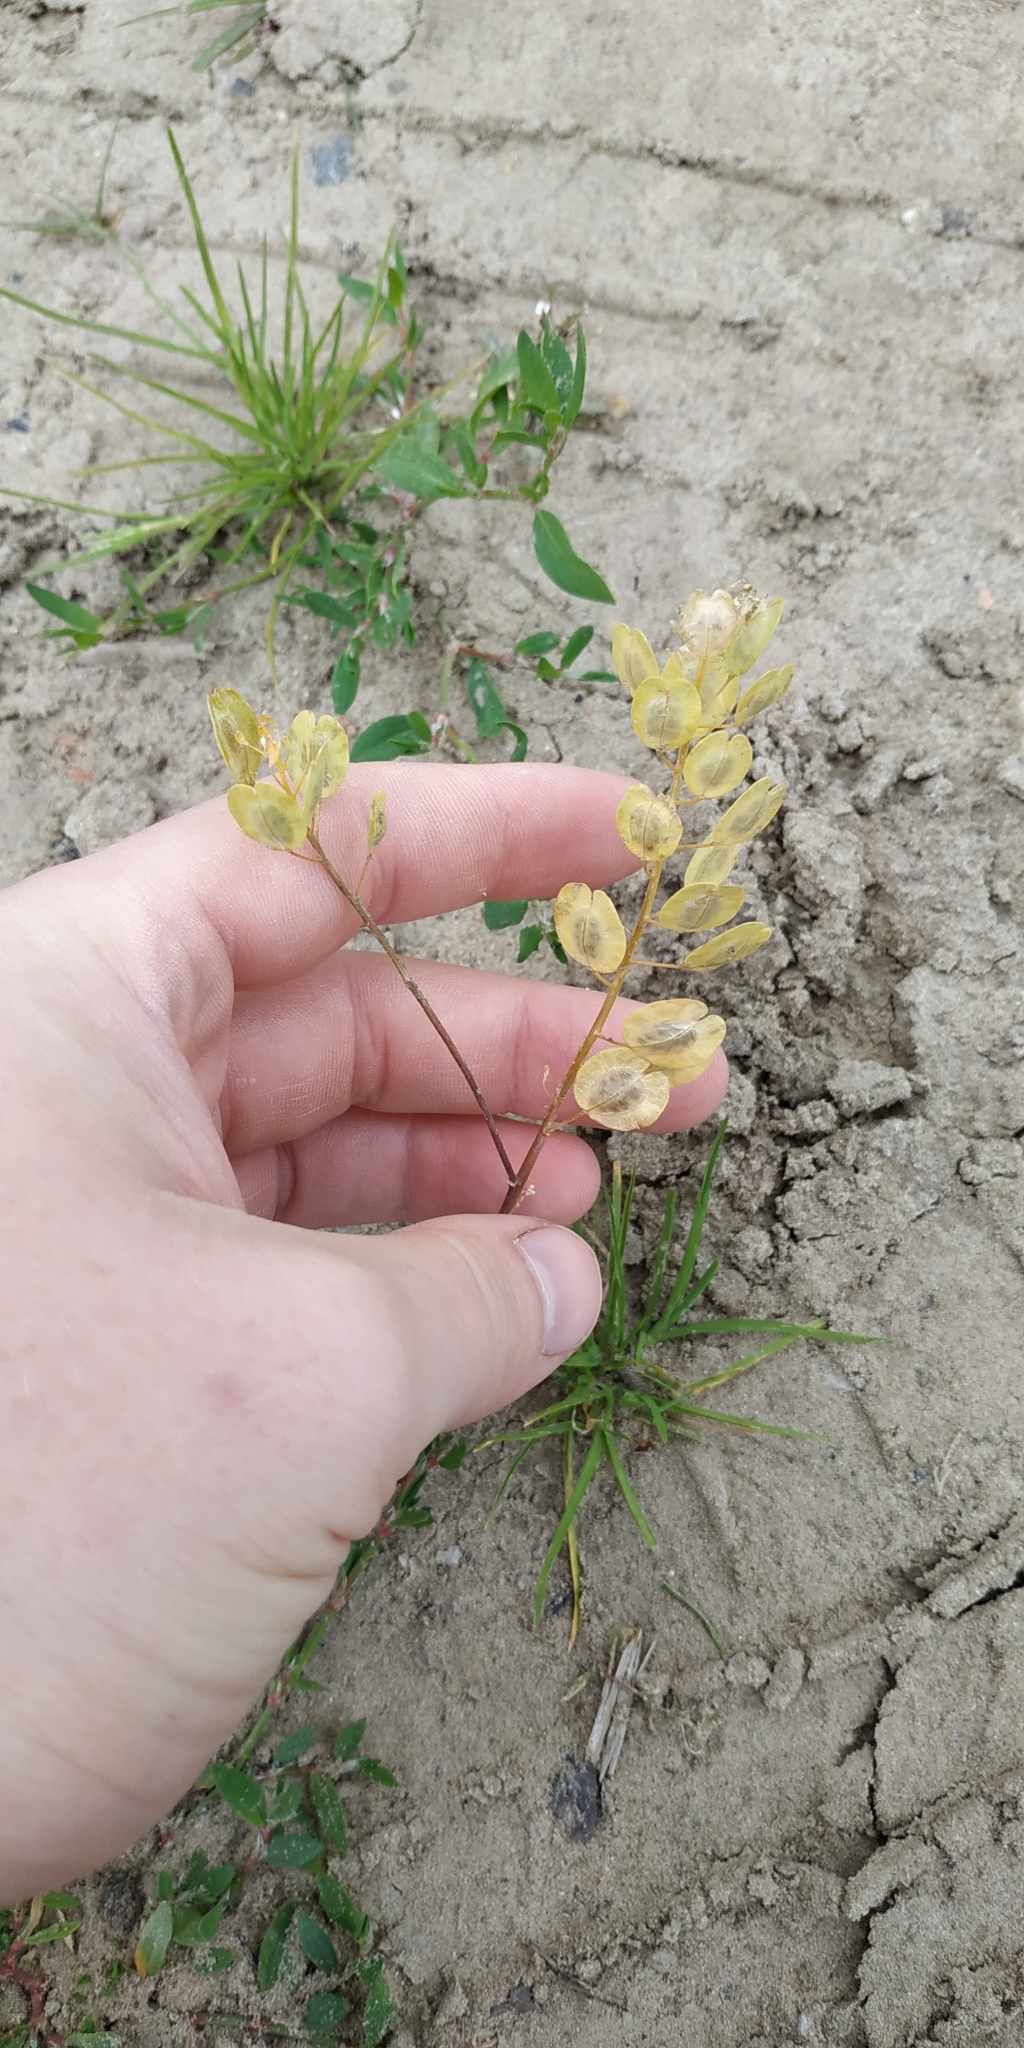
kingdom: Plantae
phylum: Tracheophyta
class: Magnoliopsida
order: Brassicales
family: Brassicaceae
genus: Thlaspi
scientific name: Thlaspi arvense
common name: Field pennycress
